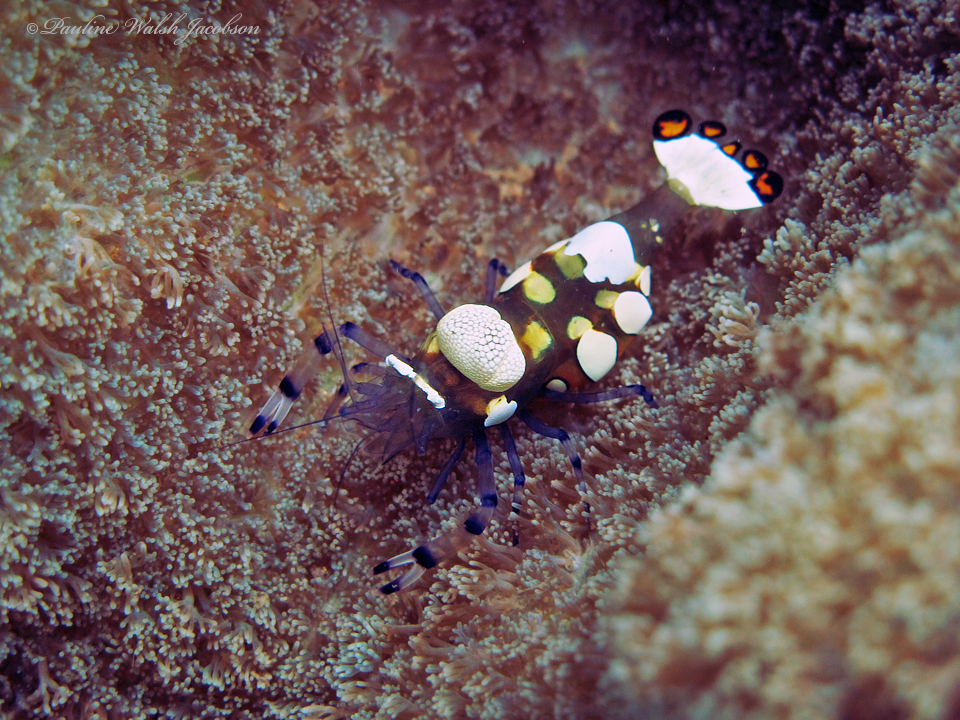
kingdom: Animalia
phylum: Arthropoda
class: Malacostraca
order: Decapoda
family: Palaemonidae
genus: Ancylocaris
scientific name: Ancylocaris brevicarpalis
